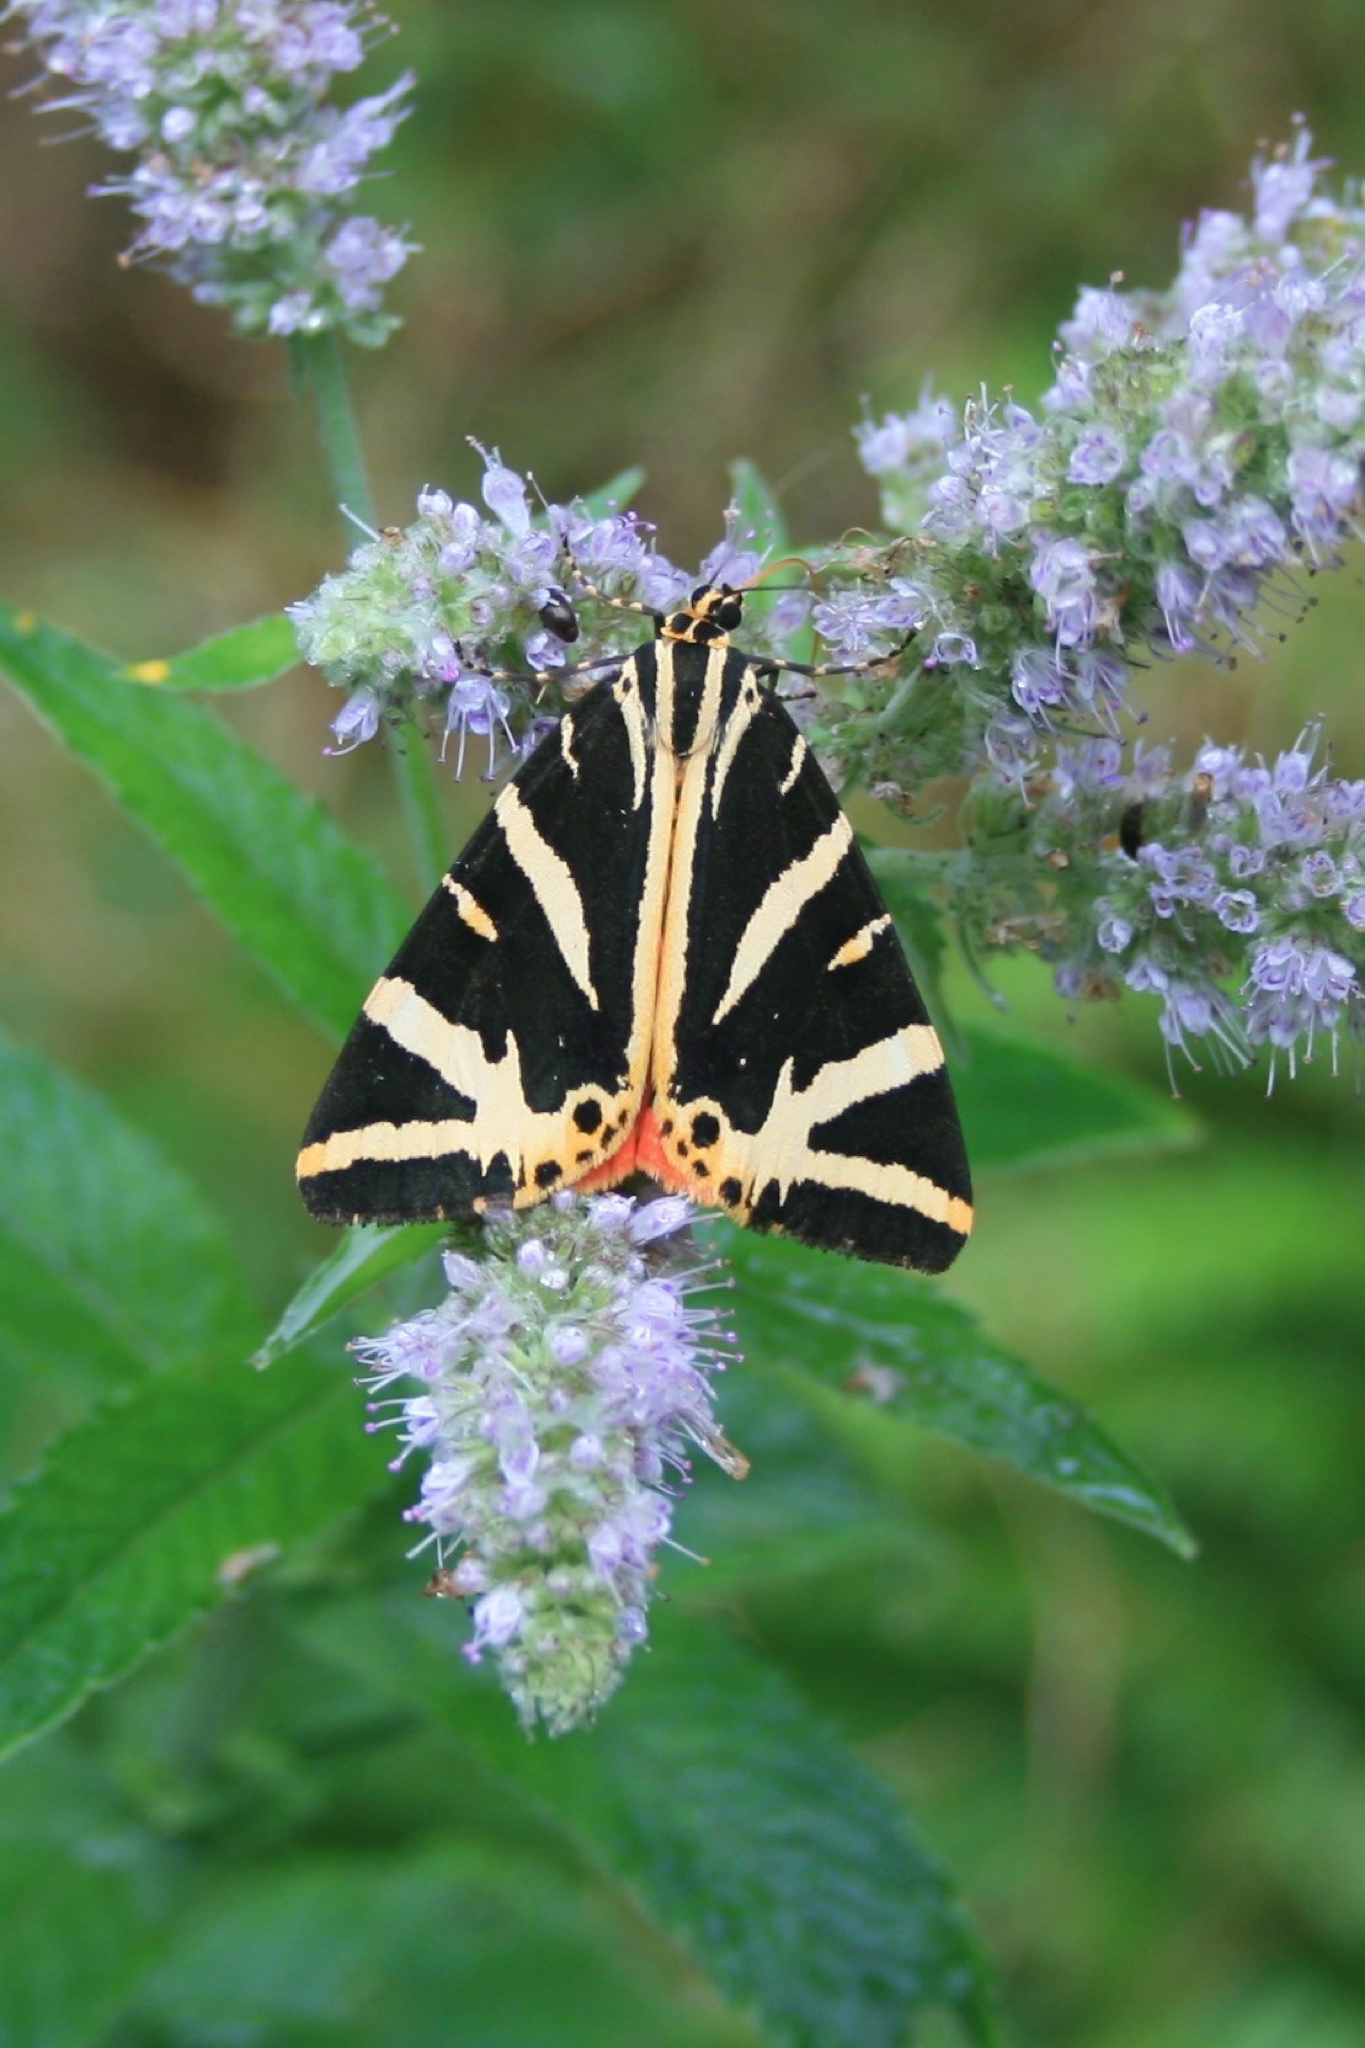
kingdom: Animalia
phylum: Arthropoda
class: Insecta
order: Lepidoptera
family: Erebidae
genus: Euplagia
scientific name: Euplagia quadripunctaria
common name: Jersey tiger
